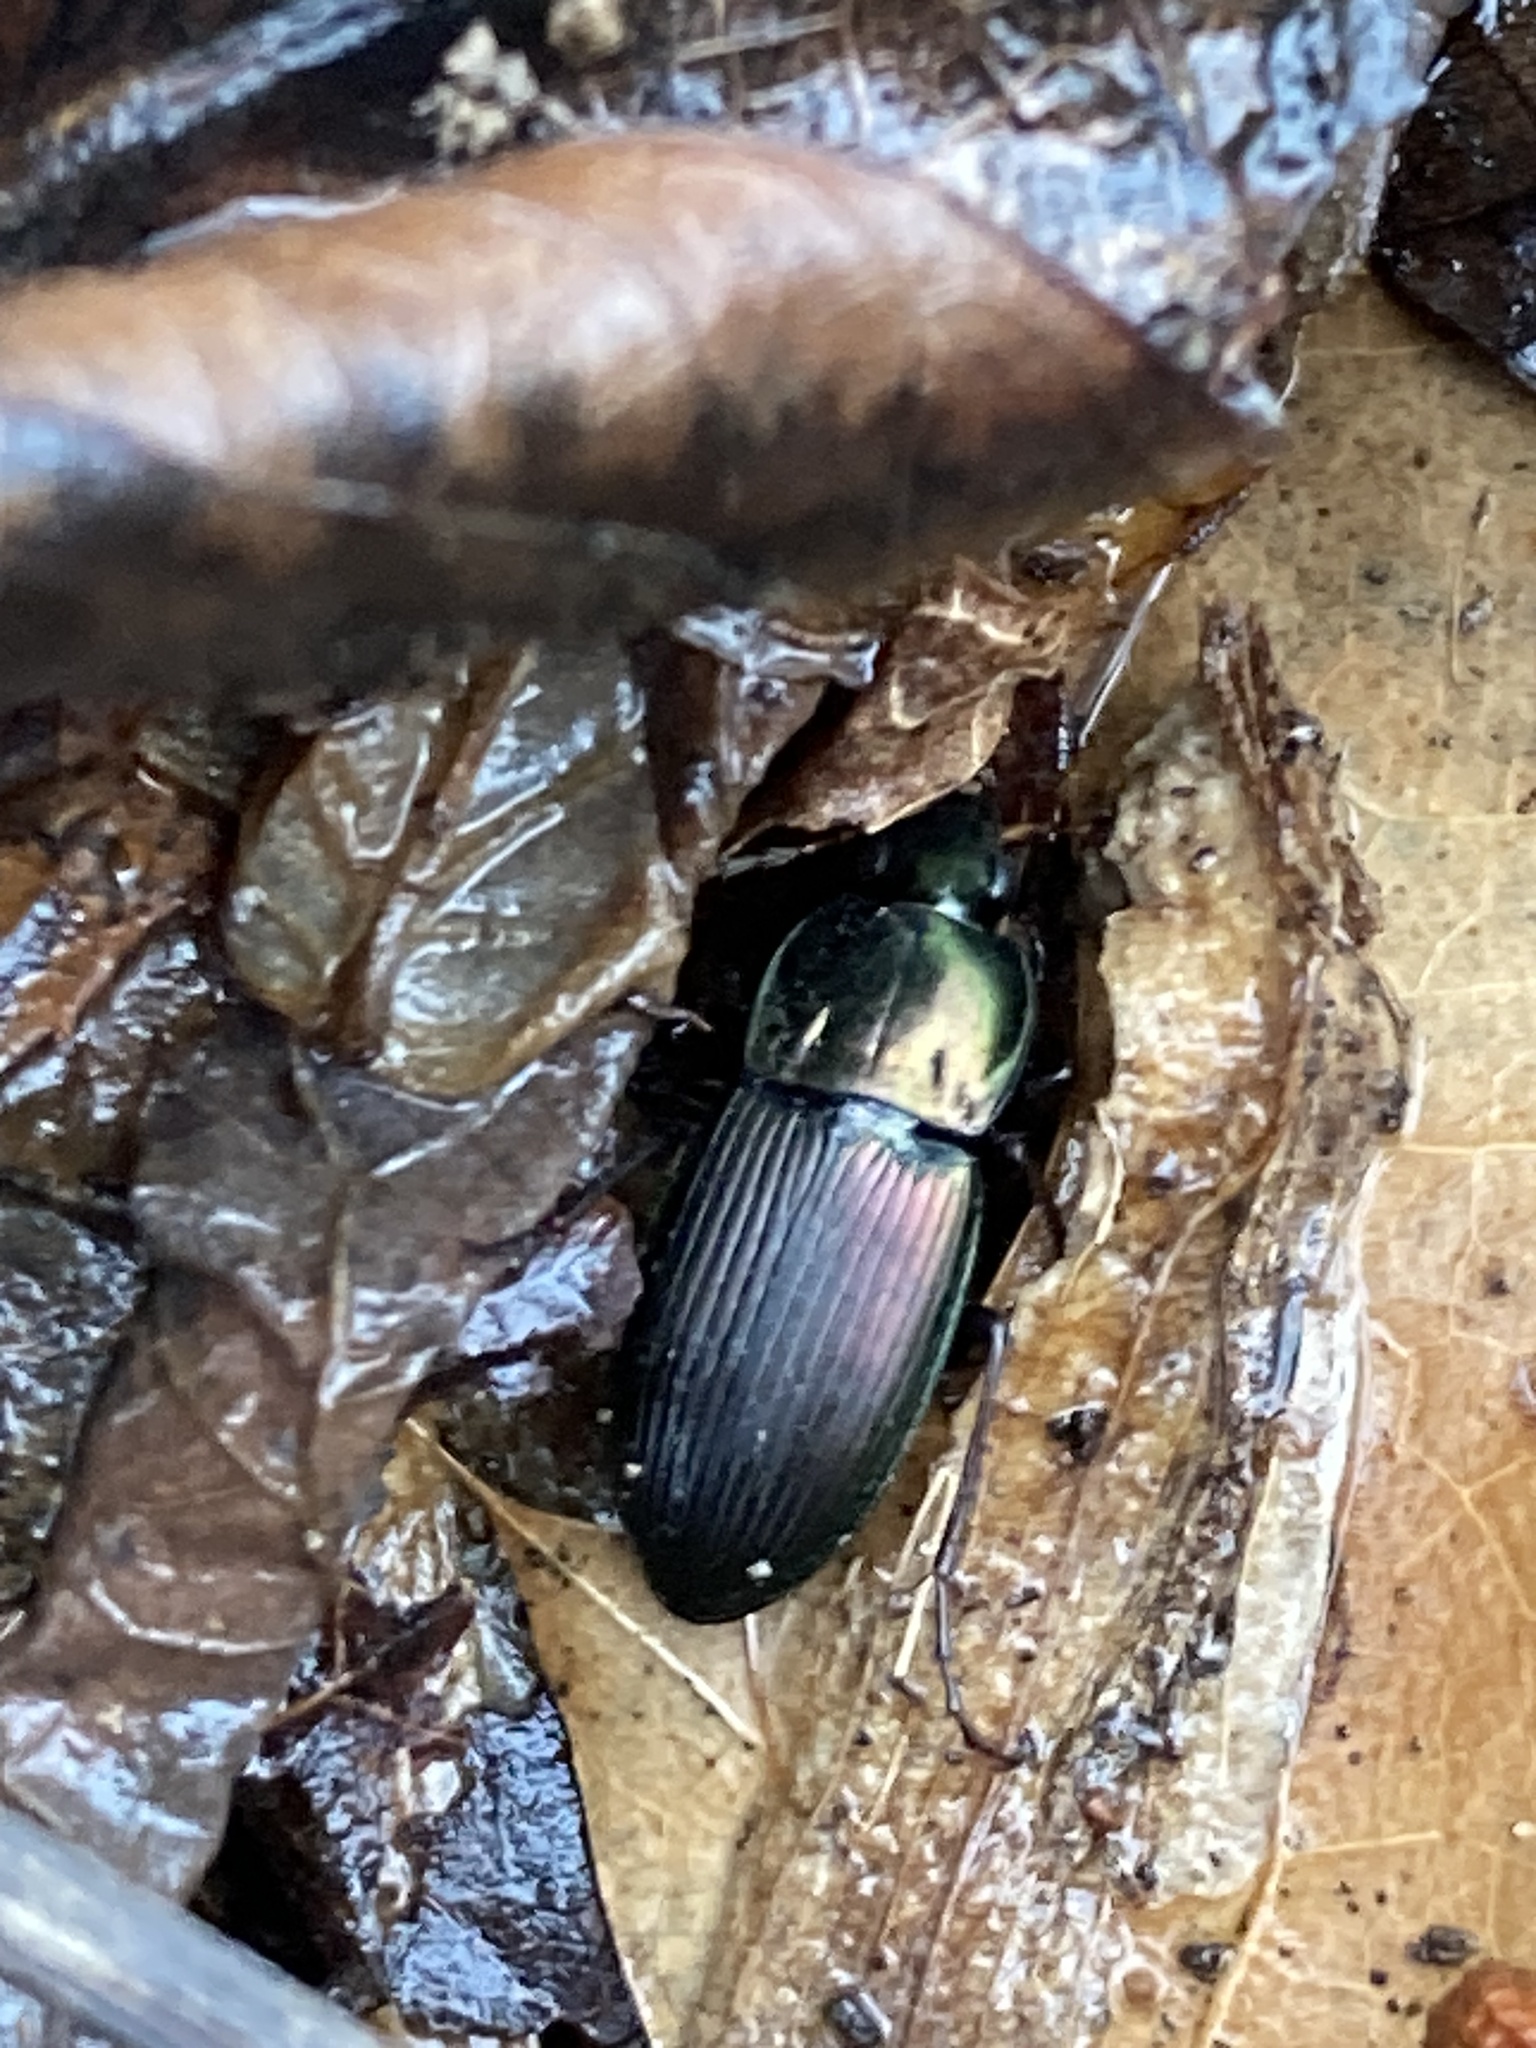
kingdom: Animalia
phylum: Arthropoda
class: Insecta
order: Coleoptera
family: Carabidae
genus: Poecilus
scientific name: Poecilus lucublandus
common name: Woodland ground beetle
